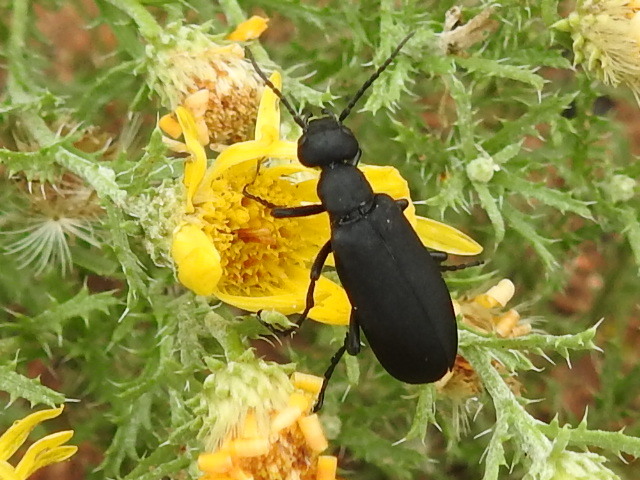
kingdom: Animalia
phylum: Arthropoda
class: Insecta
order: Coleoptera
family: Meloidae
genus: Epicauta
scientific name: Epicauta pensylvanica
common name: Black blister beetle
